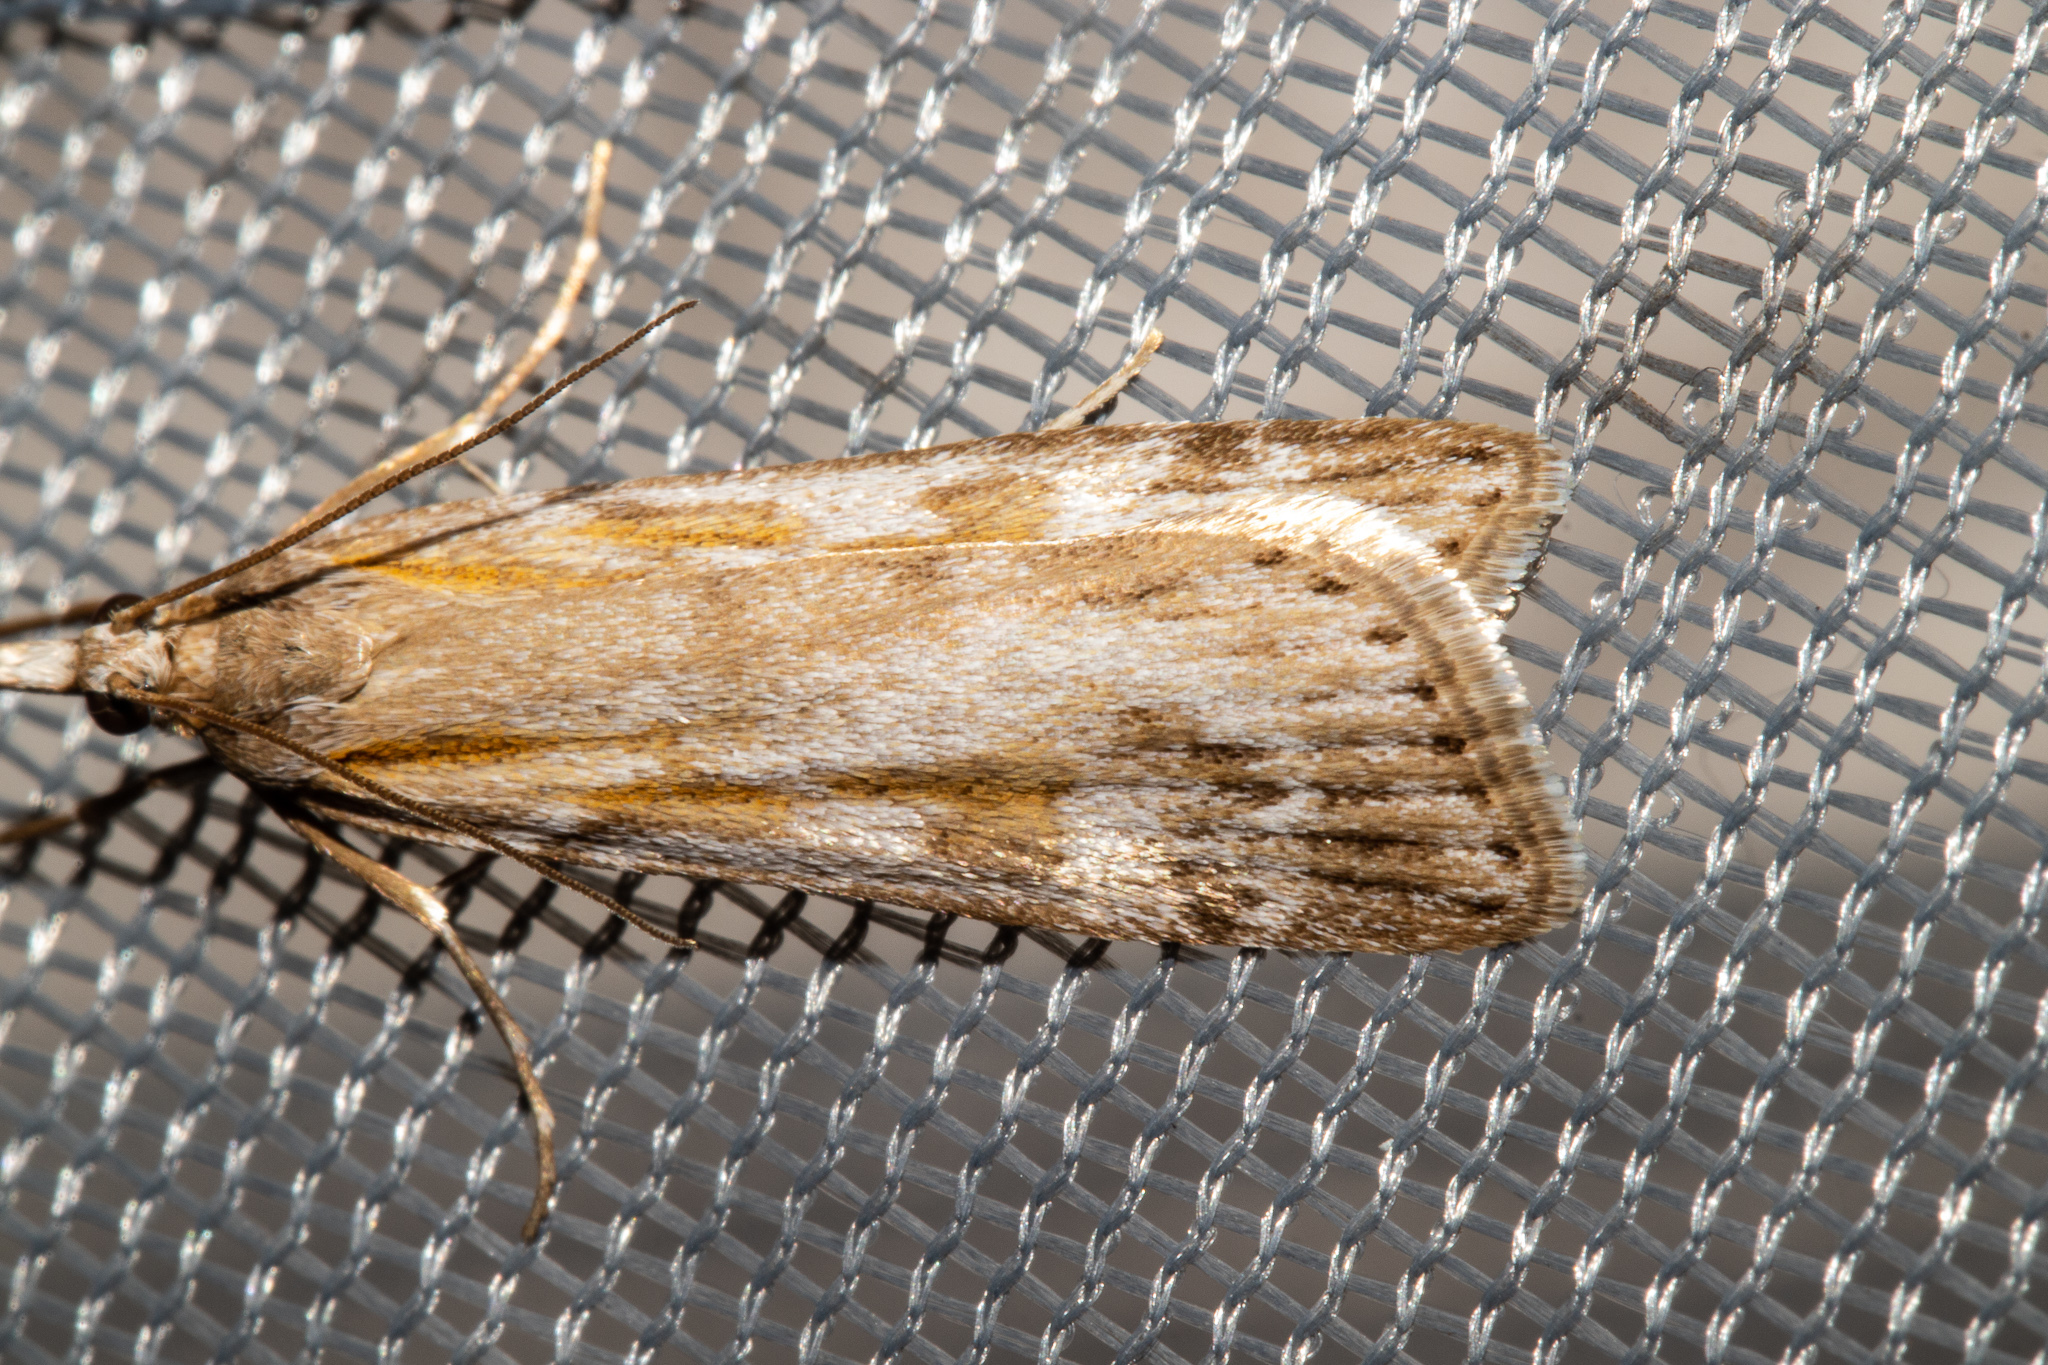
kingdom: Animalia
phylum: Arthropoda
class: Insecta
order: Lepidoptera
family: Crambidae
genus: Scoparia
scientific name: Scoparia petrina
